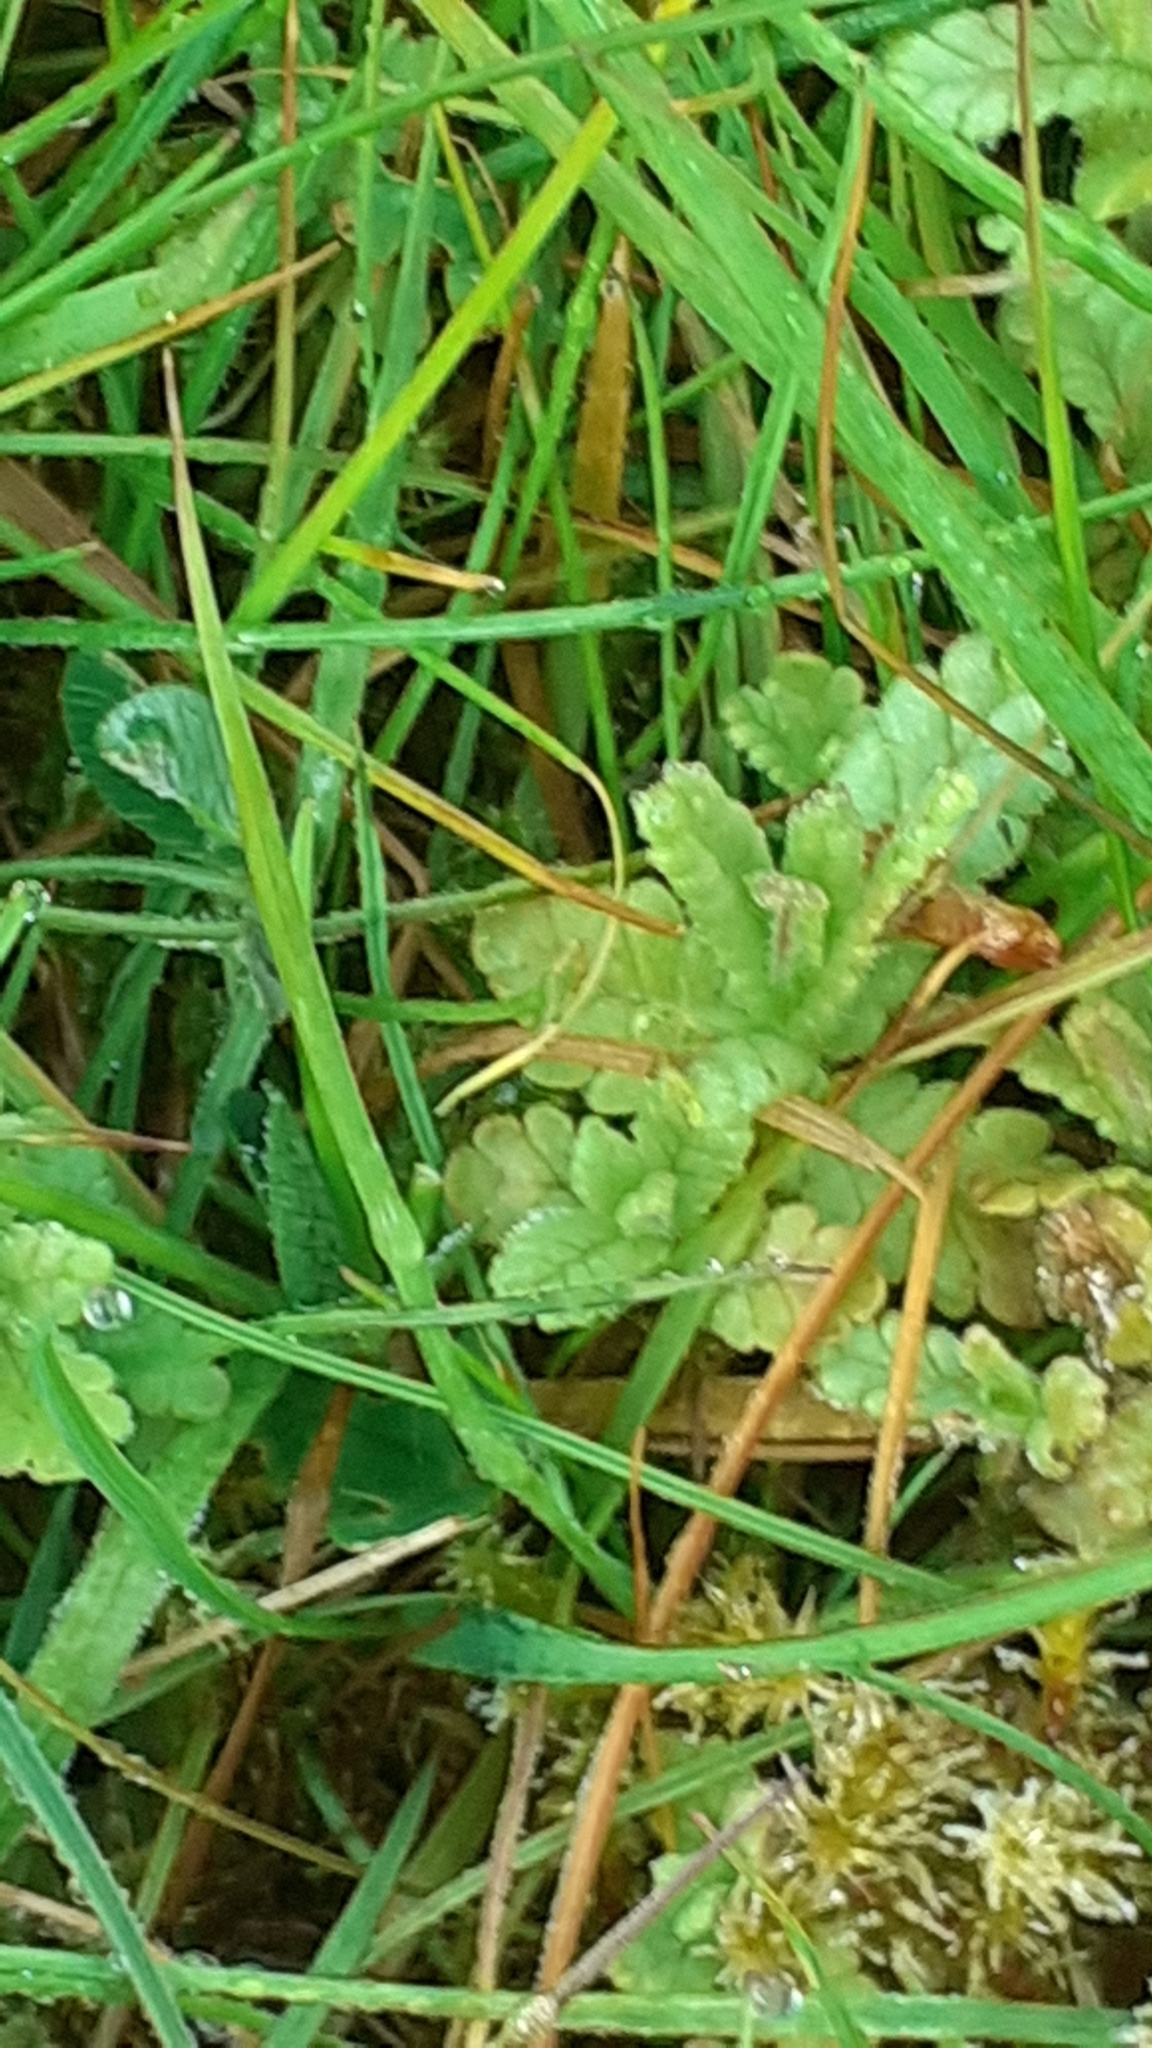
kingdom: Plantae
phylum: Tracheophyta
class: Magnoliopsida
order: Lamiales
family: Orobanchaceae
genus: Rhinanthus
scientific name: Rhinanthus minor
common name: Yellow-rattle
